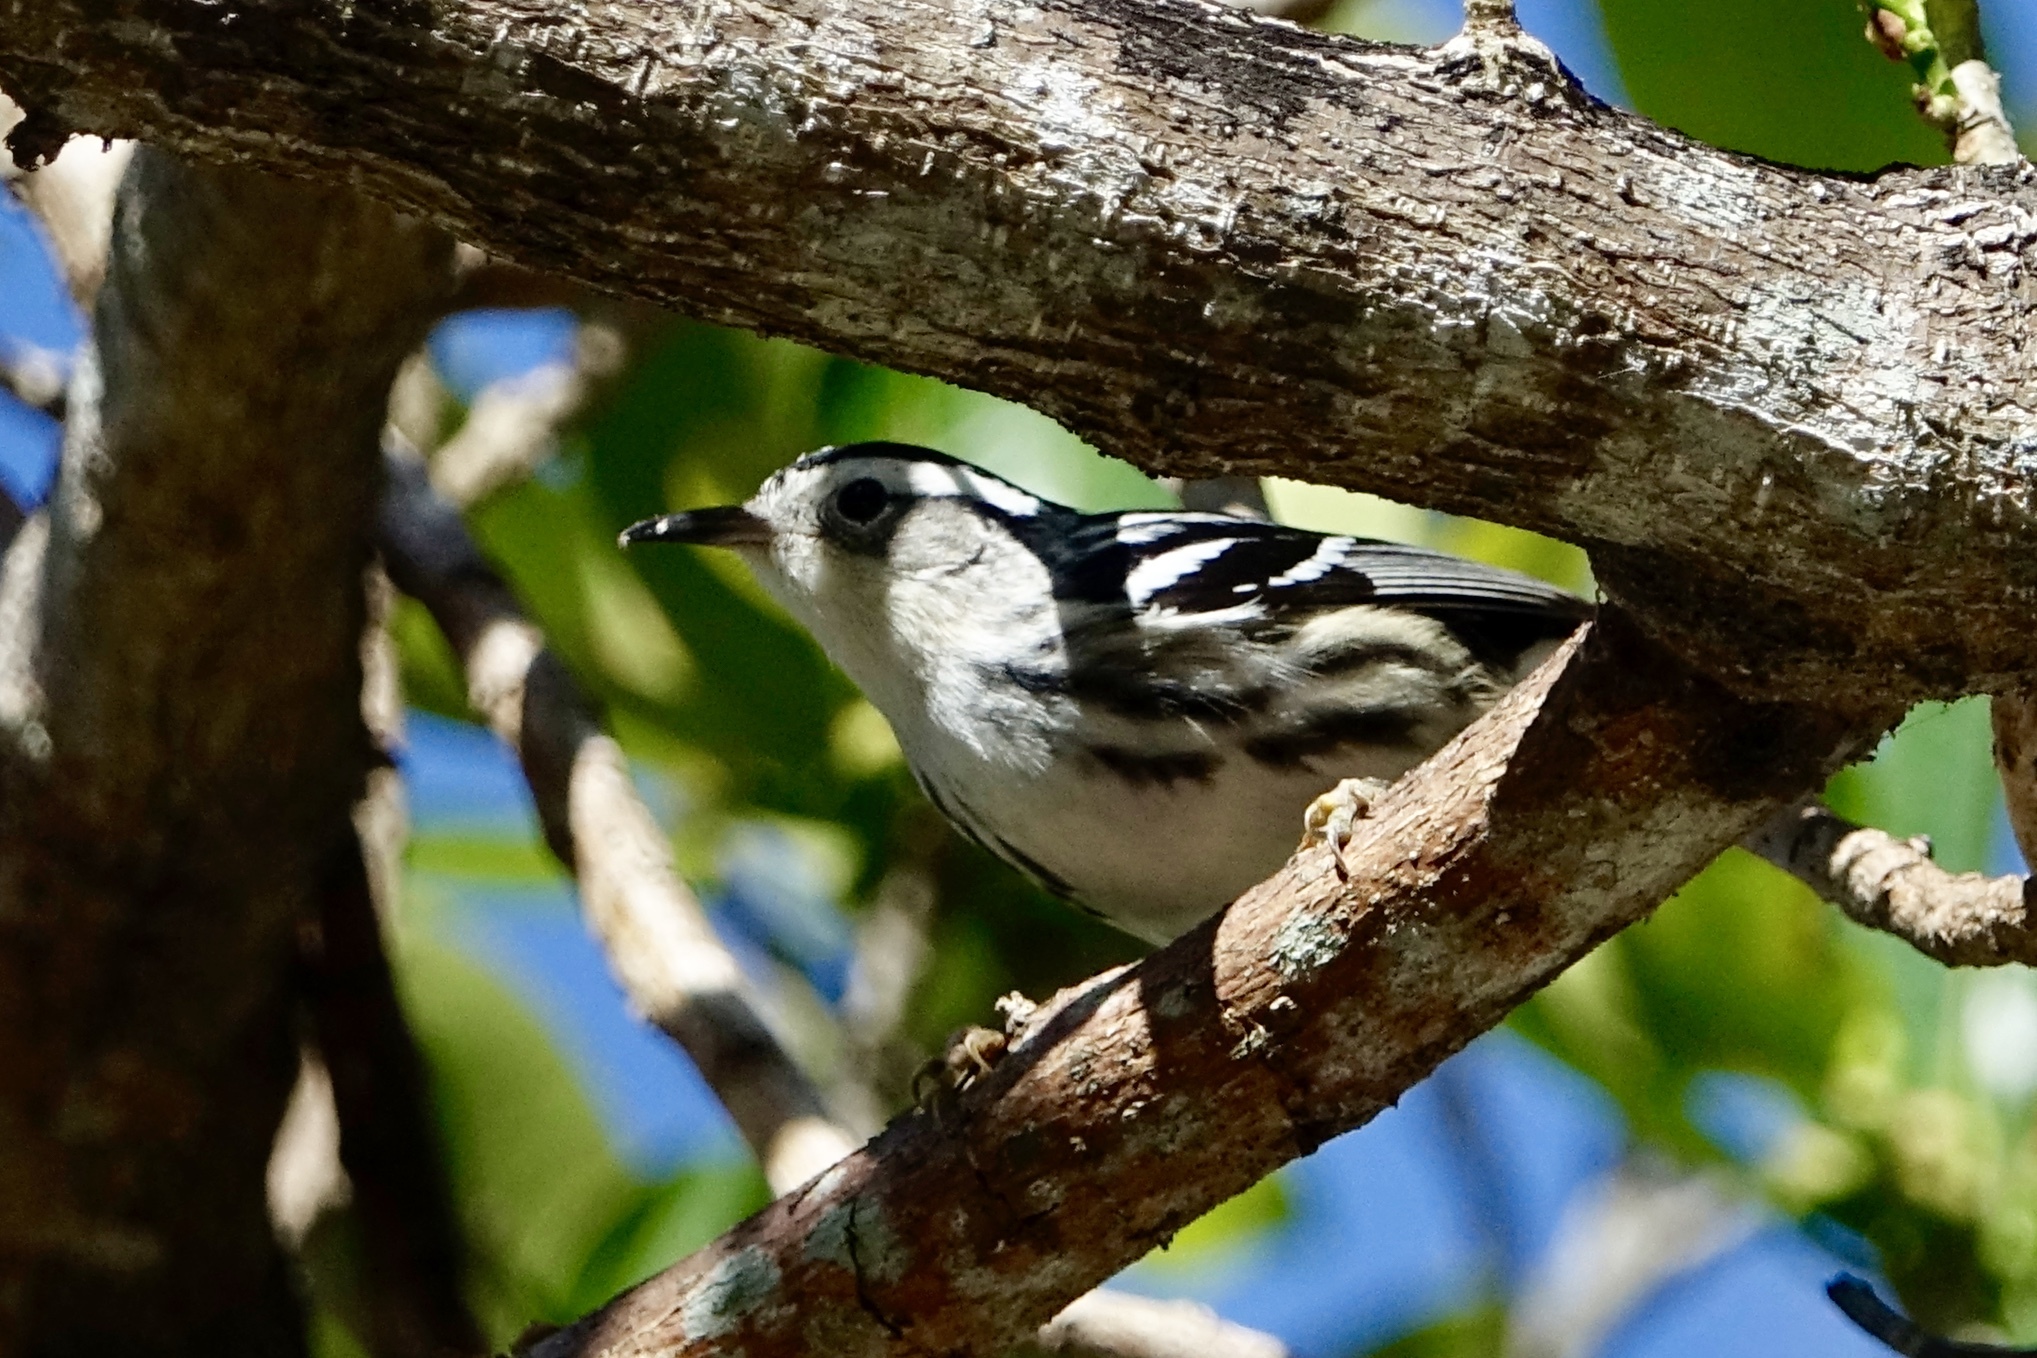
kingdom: Animalia
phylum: Chordata
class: Aves
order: Passeriformes
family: Parulidae
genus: Mniotilta
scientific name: Mniotilta varia
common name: Black-and-white warbler
